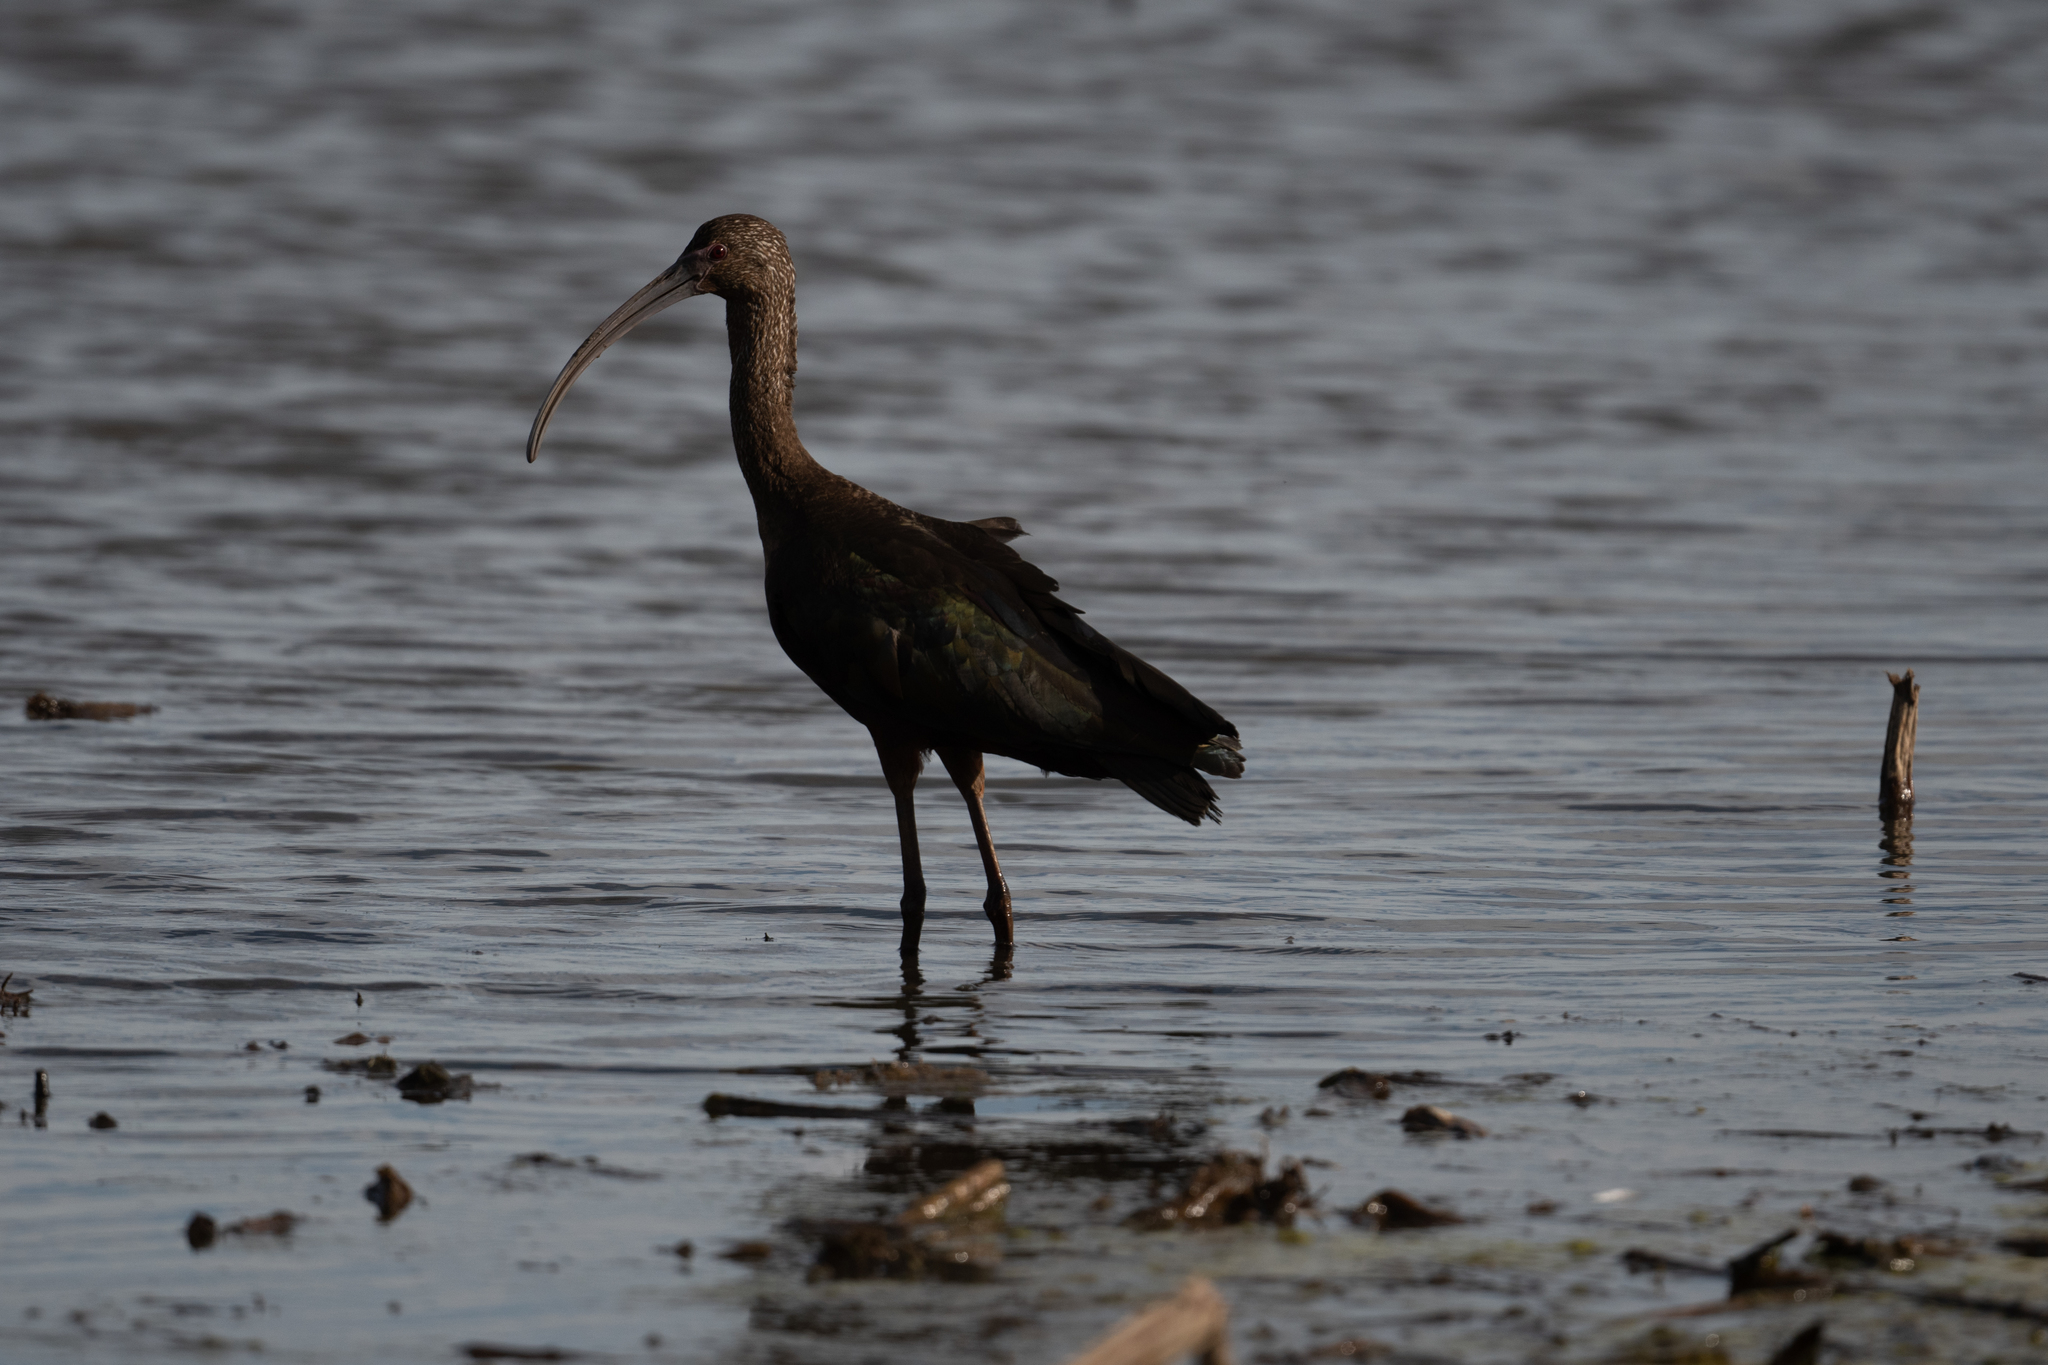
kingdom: Animalia
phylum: Chordata
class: Aves
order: Pelecaniformes
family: Threskiornithidae
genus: Plegadis
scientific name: Plegadis chihi
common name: White-faced ibis
